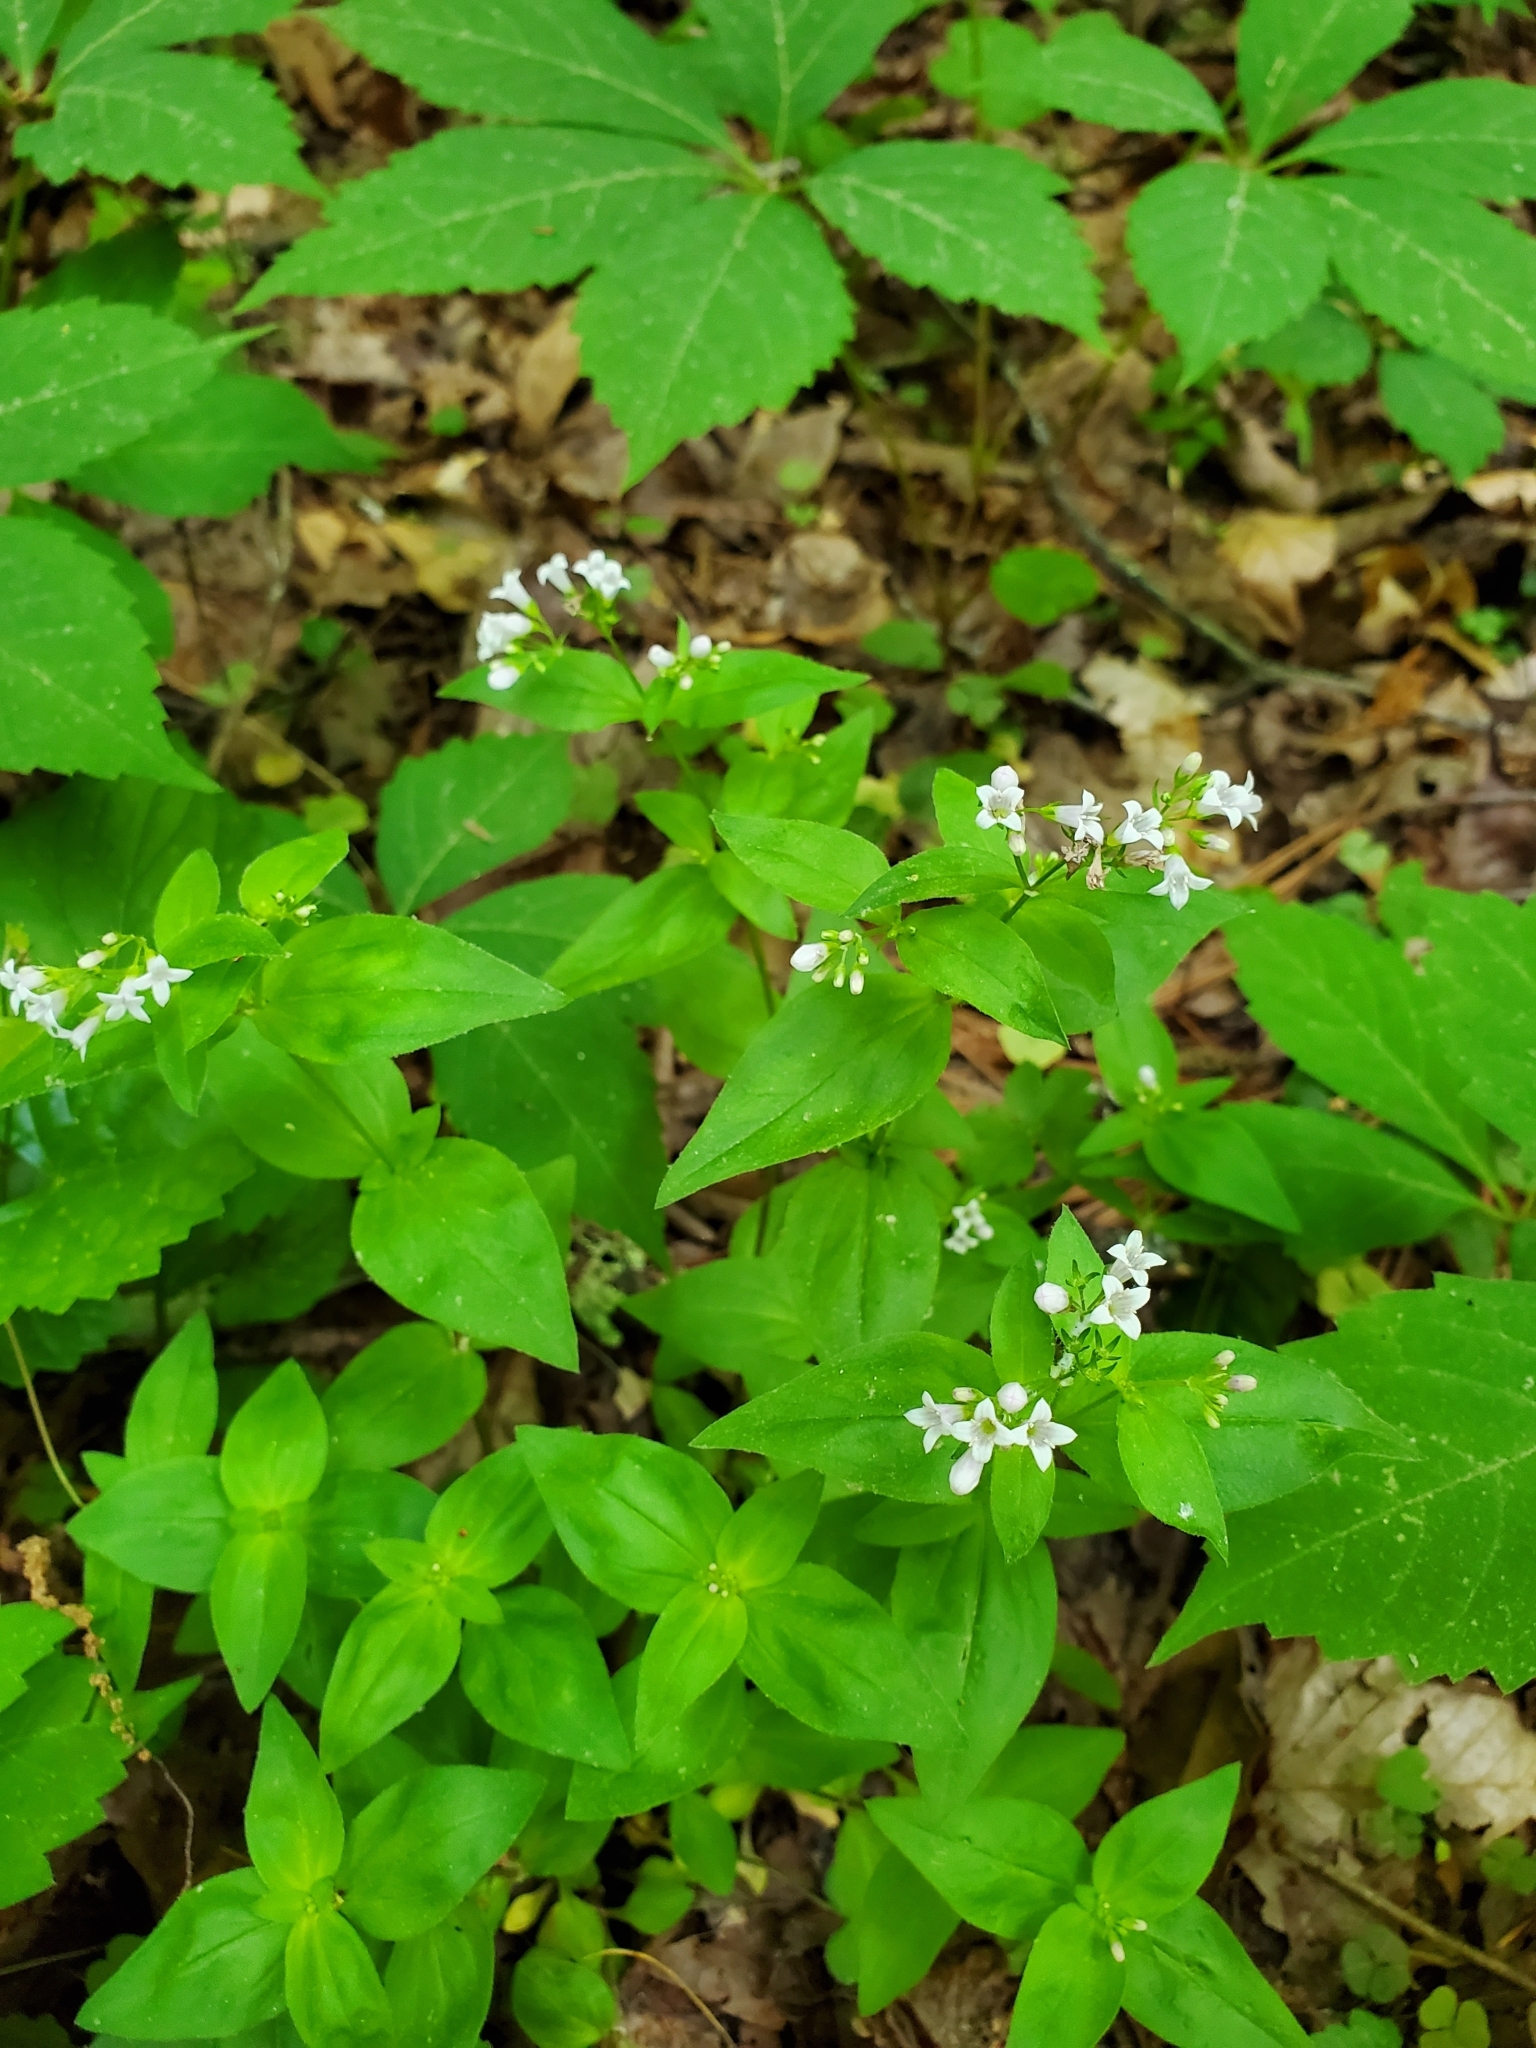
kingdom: Plantae
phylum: Tracheophyta
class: Magnoliopsida
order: Gentianales
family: Rubiaceae
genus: Houstonia
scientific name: Houstonia purpurea
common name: Summer bluet
